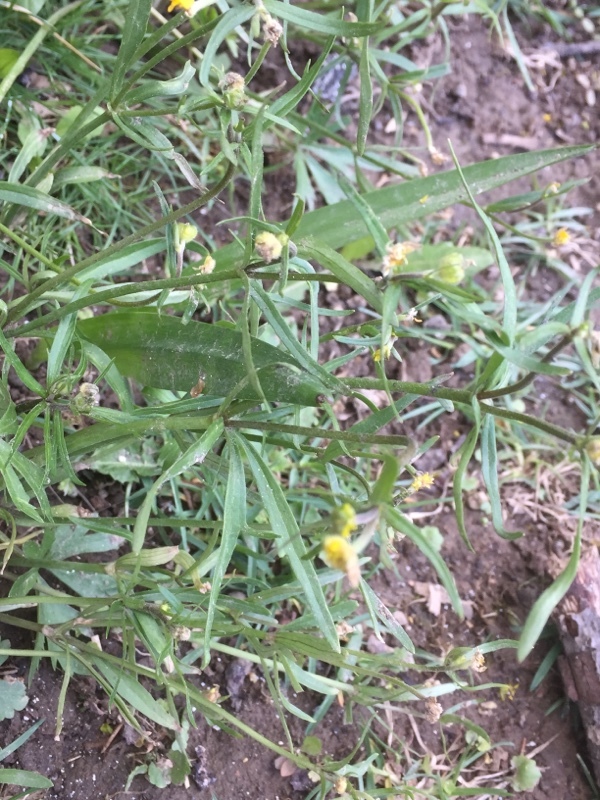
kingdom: Plantae
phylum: Tracheophyta
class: Magnoliopsida
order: Ranunculales
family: Ranunculaceae
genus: Ranunculus
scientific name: Ranunculus auricomus
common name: Goldilocks buttercup
